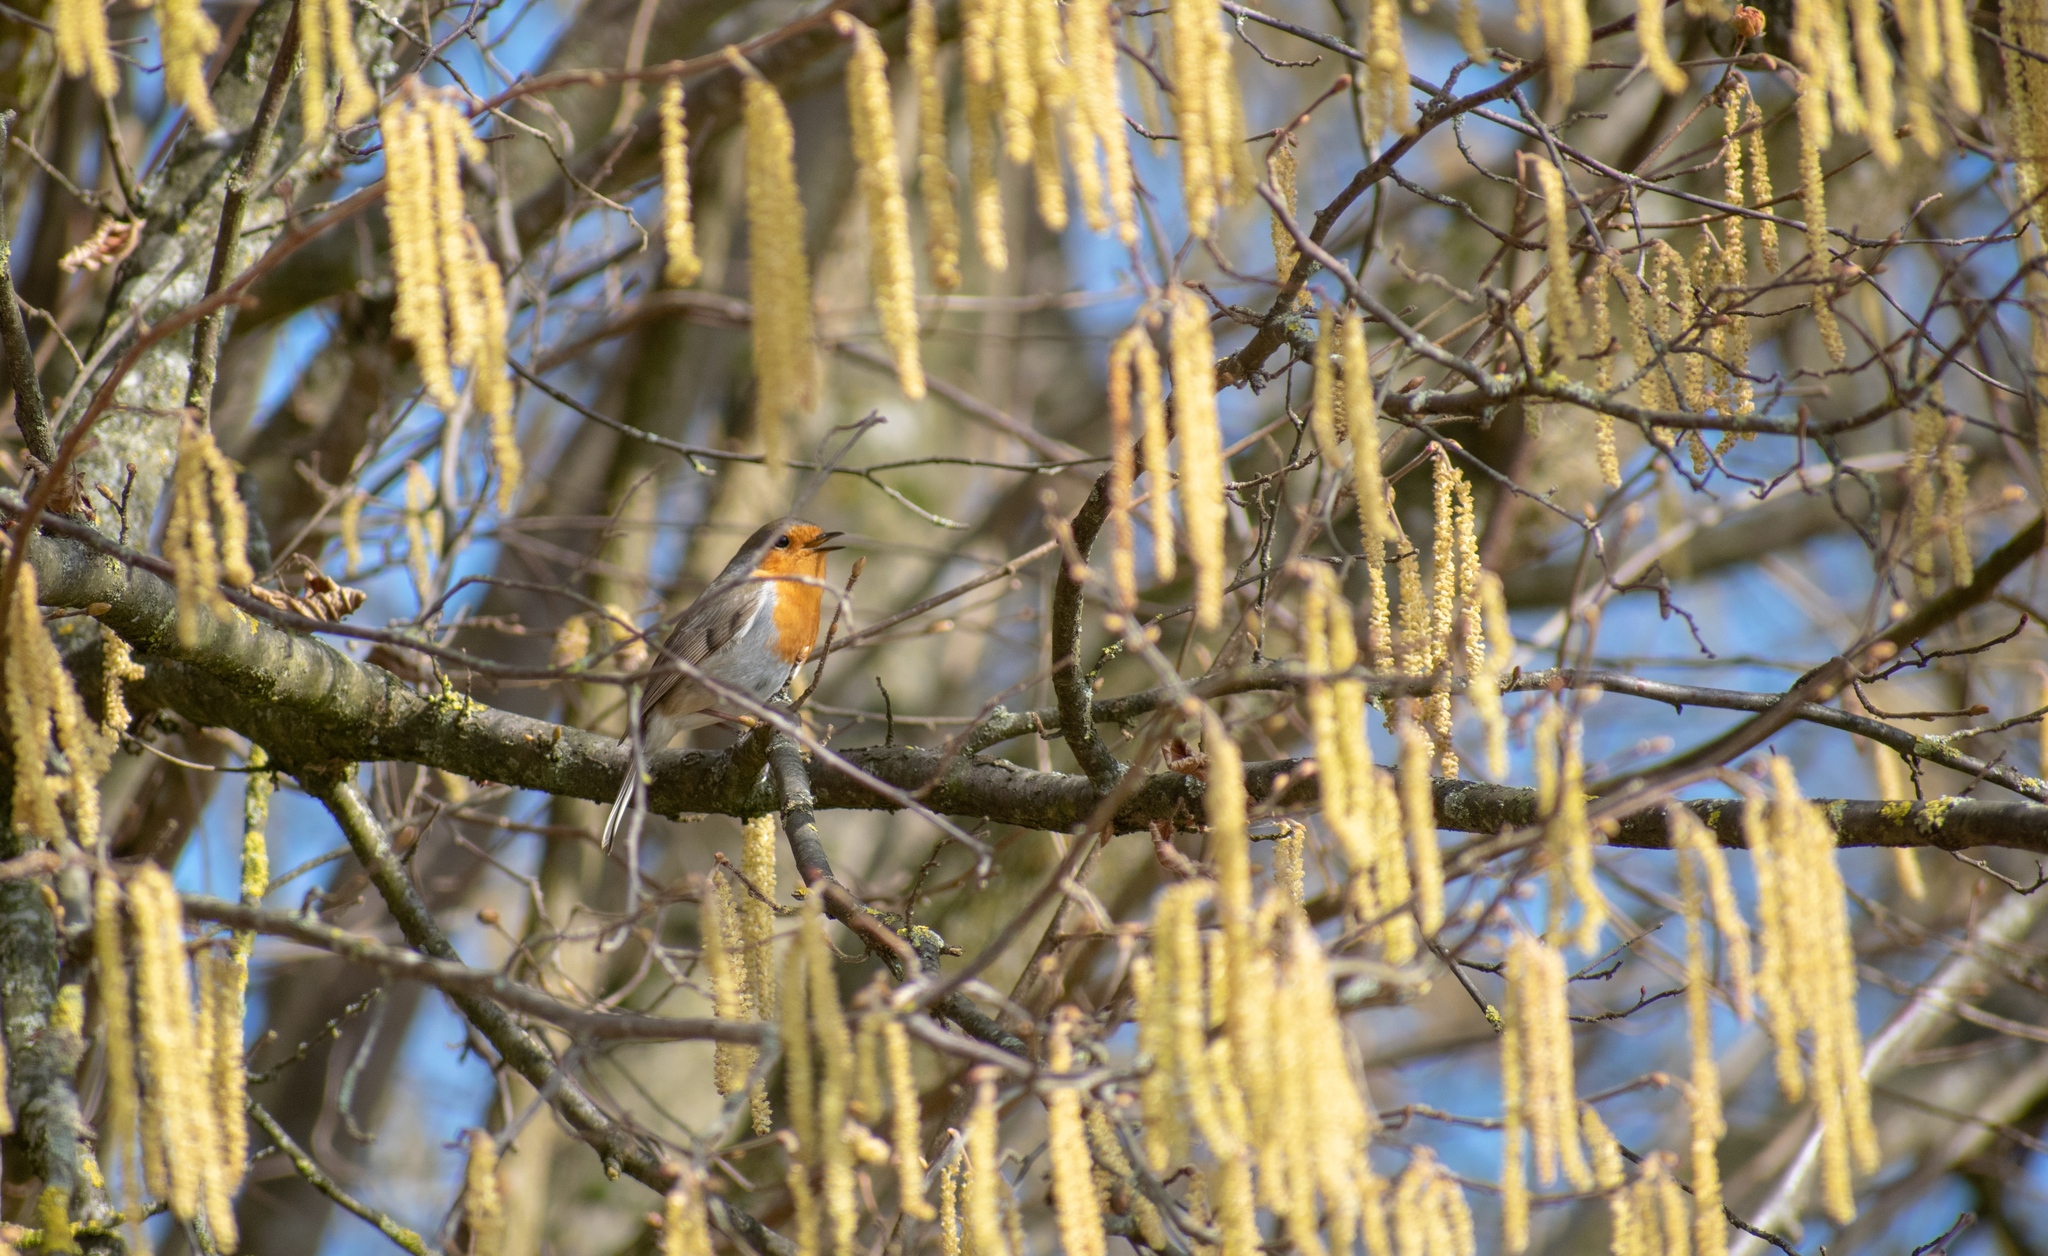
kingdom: Animalia
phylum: Chordata
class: Aves
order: Passeriformes
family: Muscicapidae
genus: Erithacus
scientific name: Erithacus rubecula
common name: European robin
